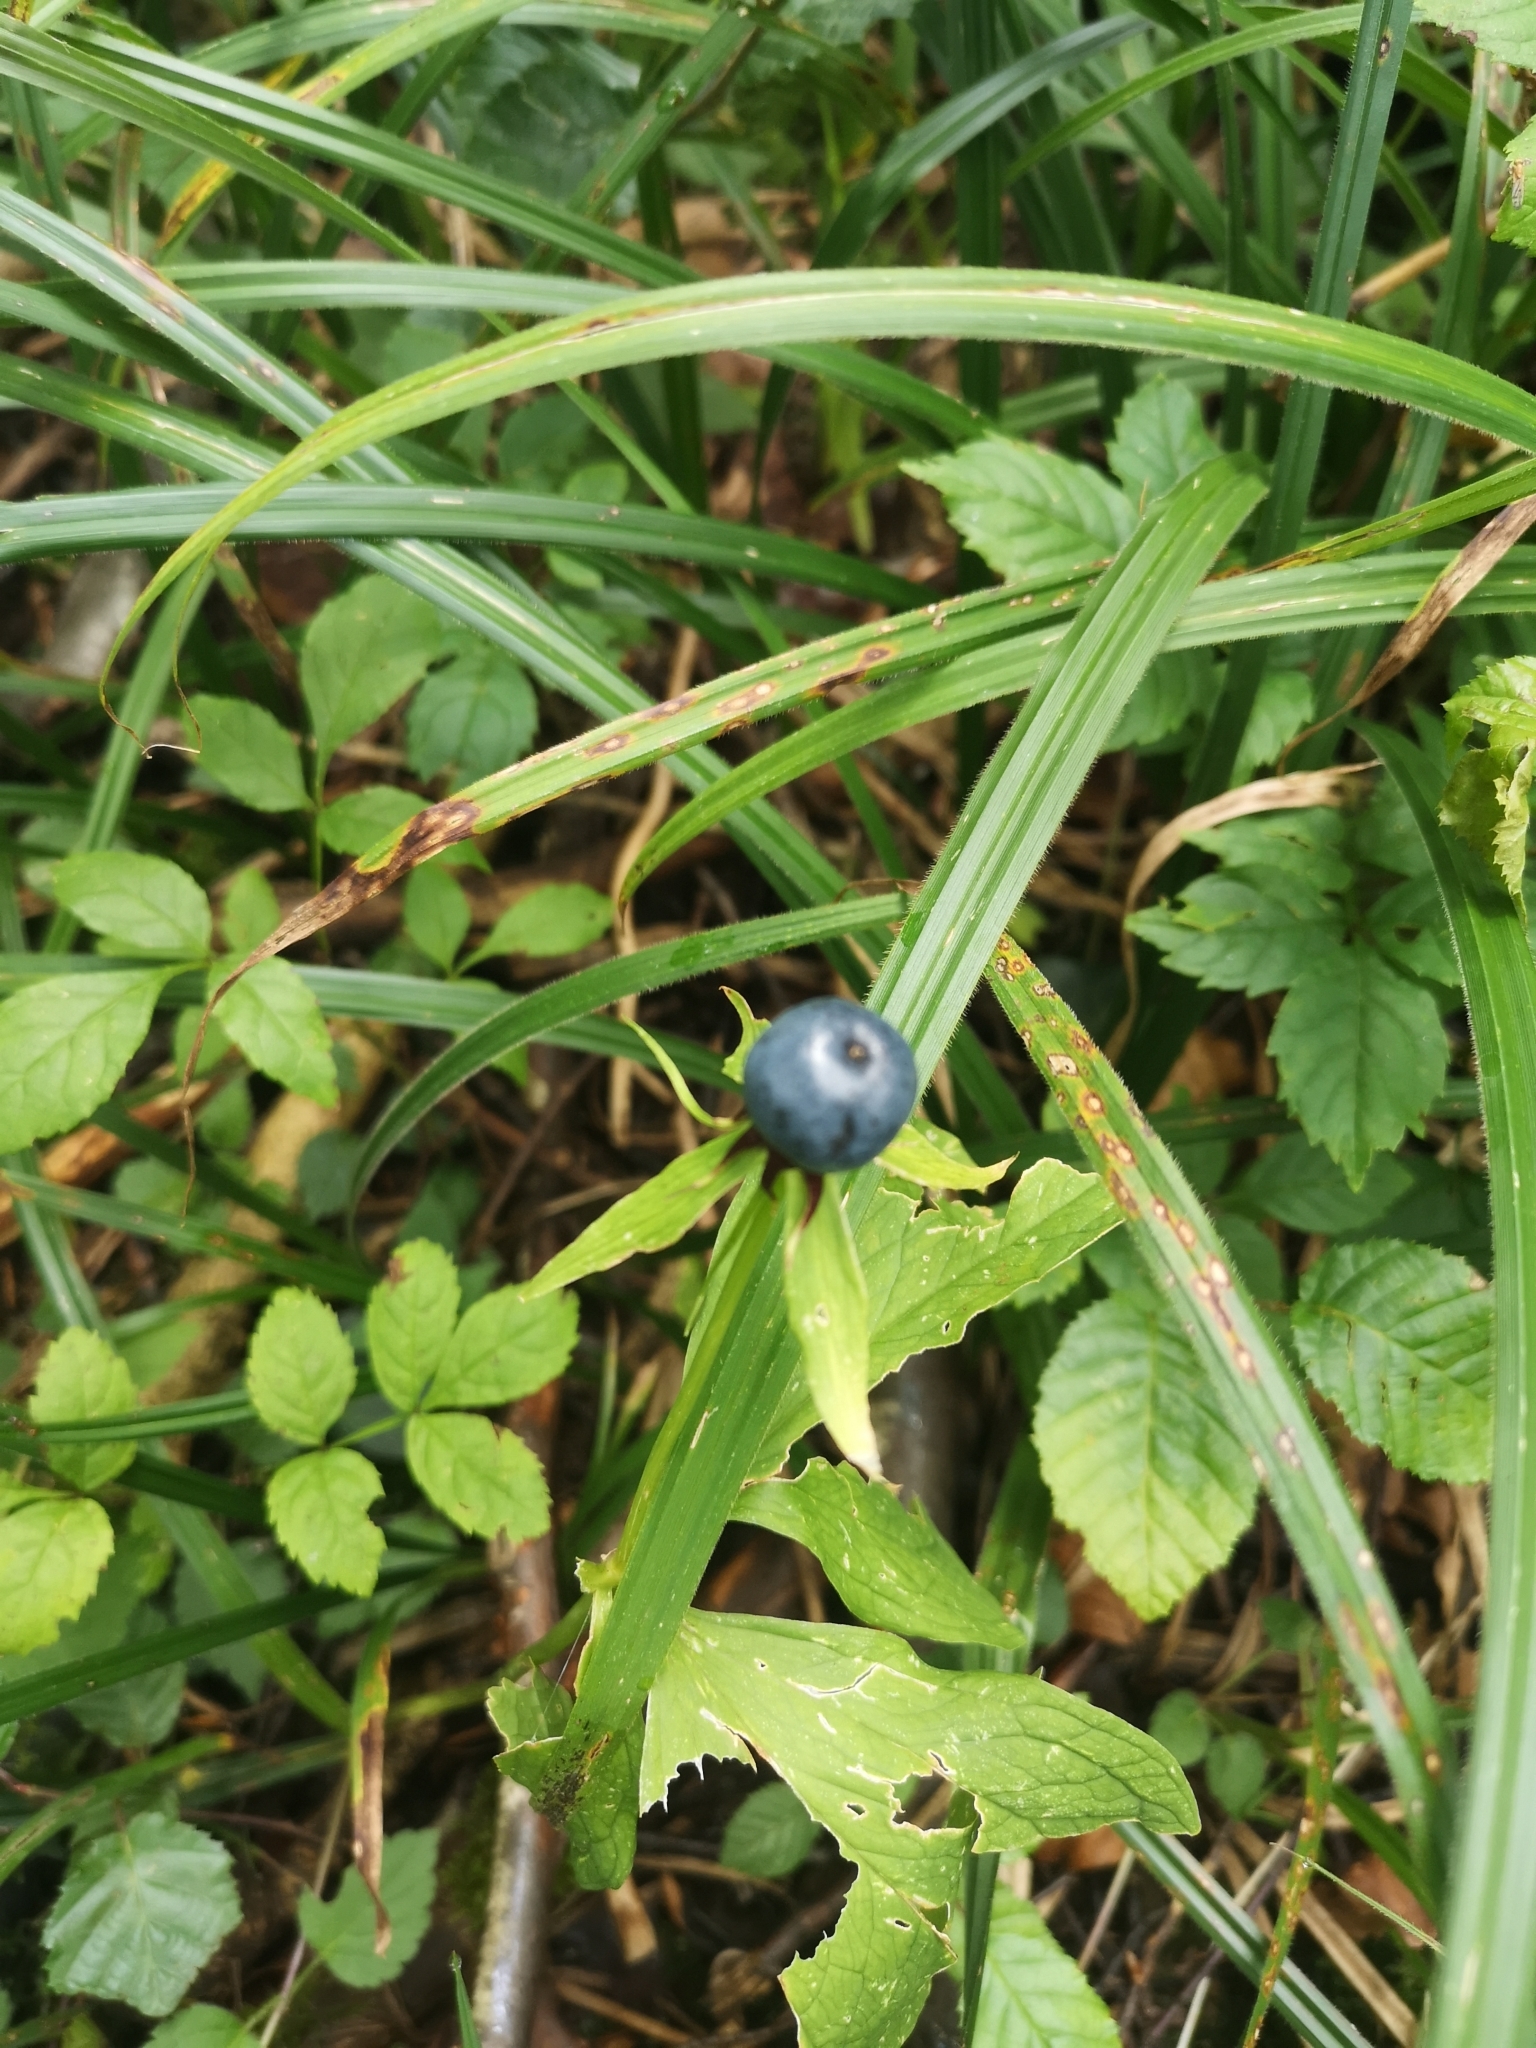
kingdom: Plantae
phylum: Tracheophyta
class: Liliopsida
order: Liliales
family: Melanthiaceae
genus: Paris
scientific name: Paris quadrifolia
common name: Herb-paris
